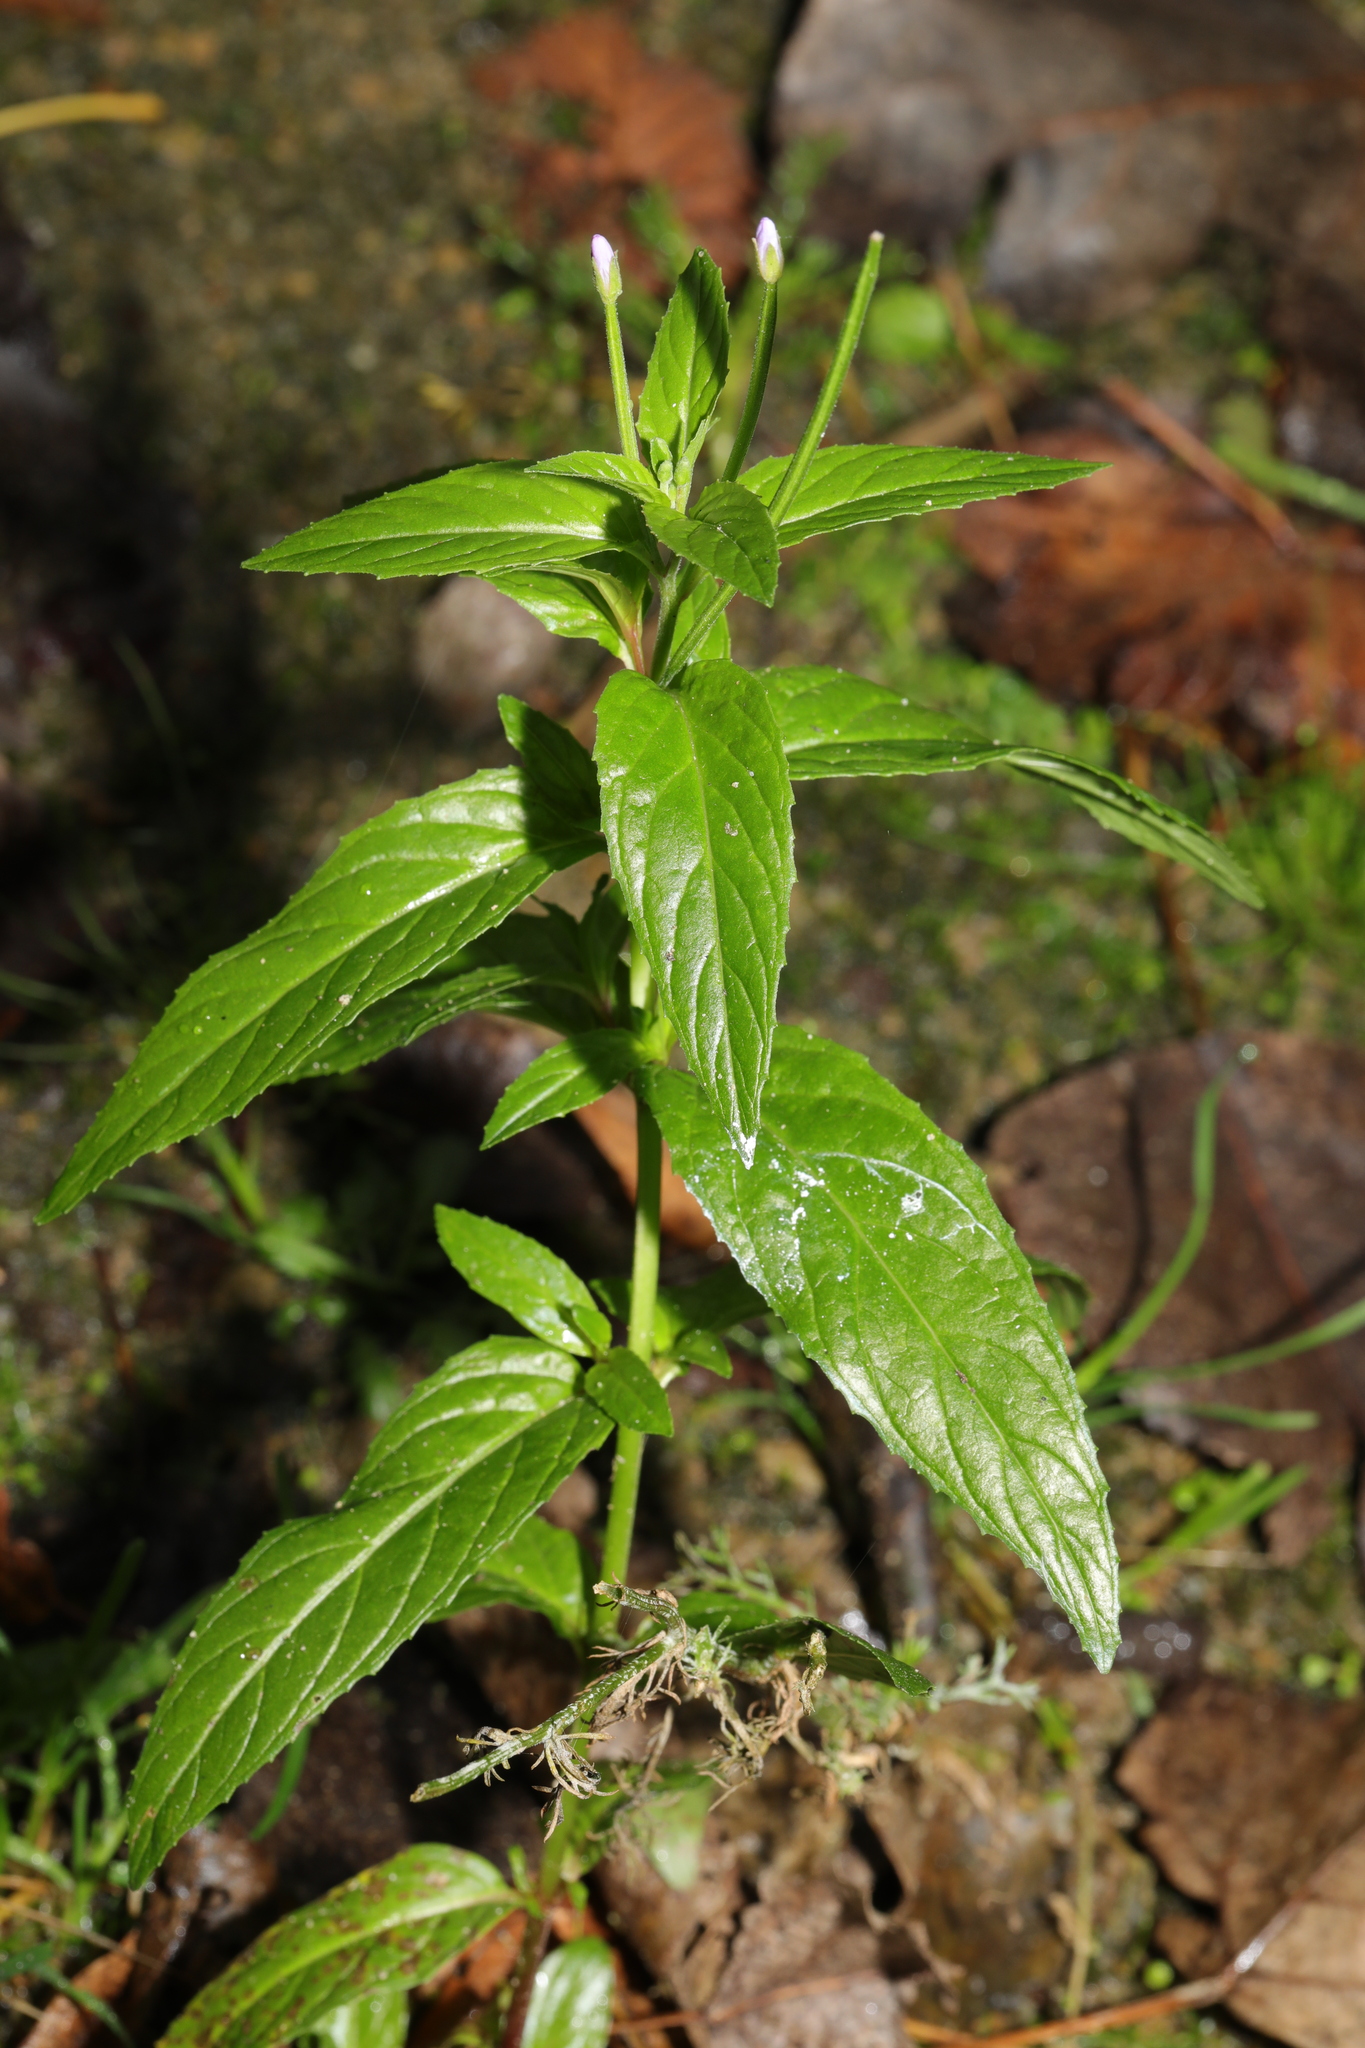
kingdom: Plantae
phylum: Tracheophyta
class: Magnoliopsida
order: Myrtales
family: Onagraceae
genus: Epilobium
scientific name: Epilobium ciliatum
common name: American willowherb
